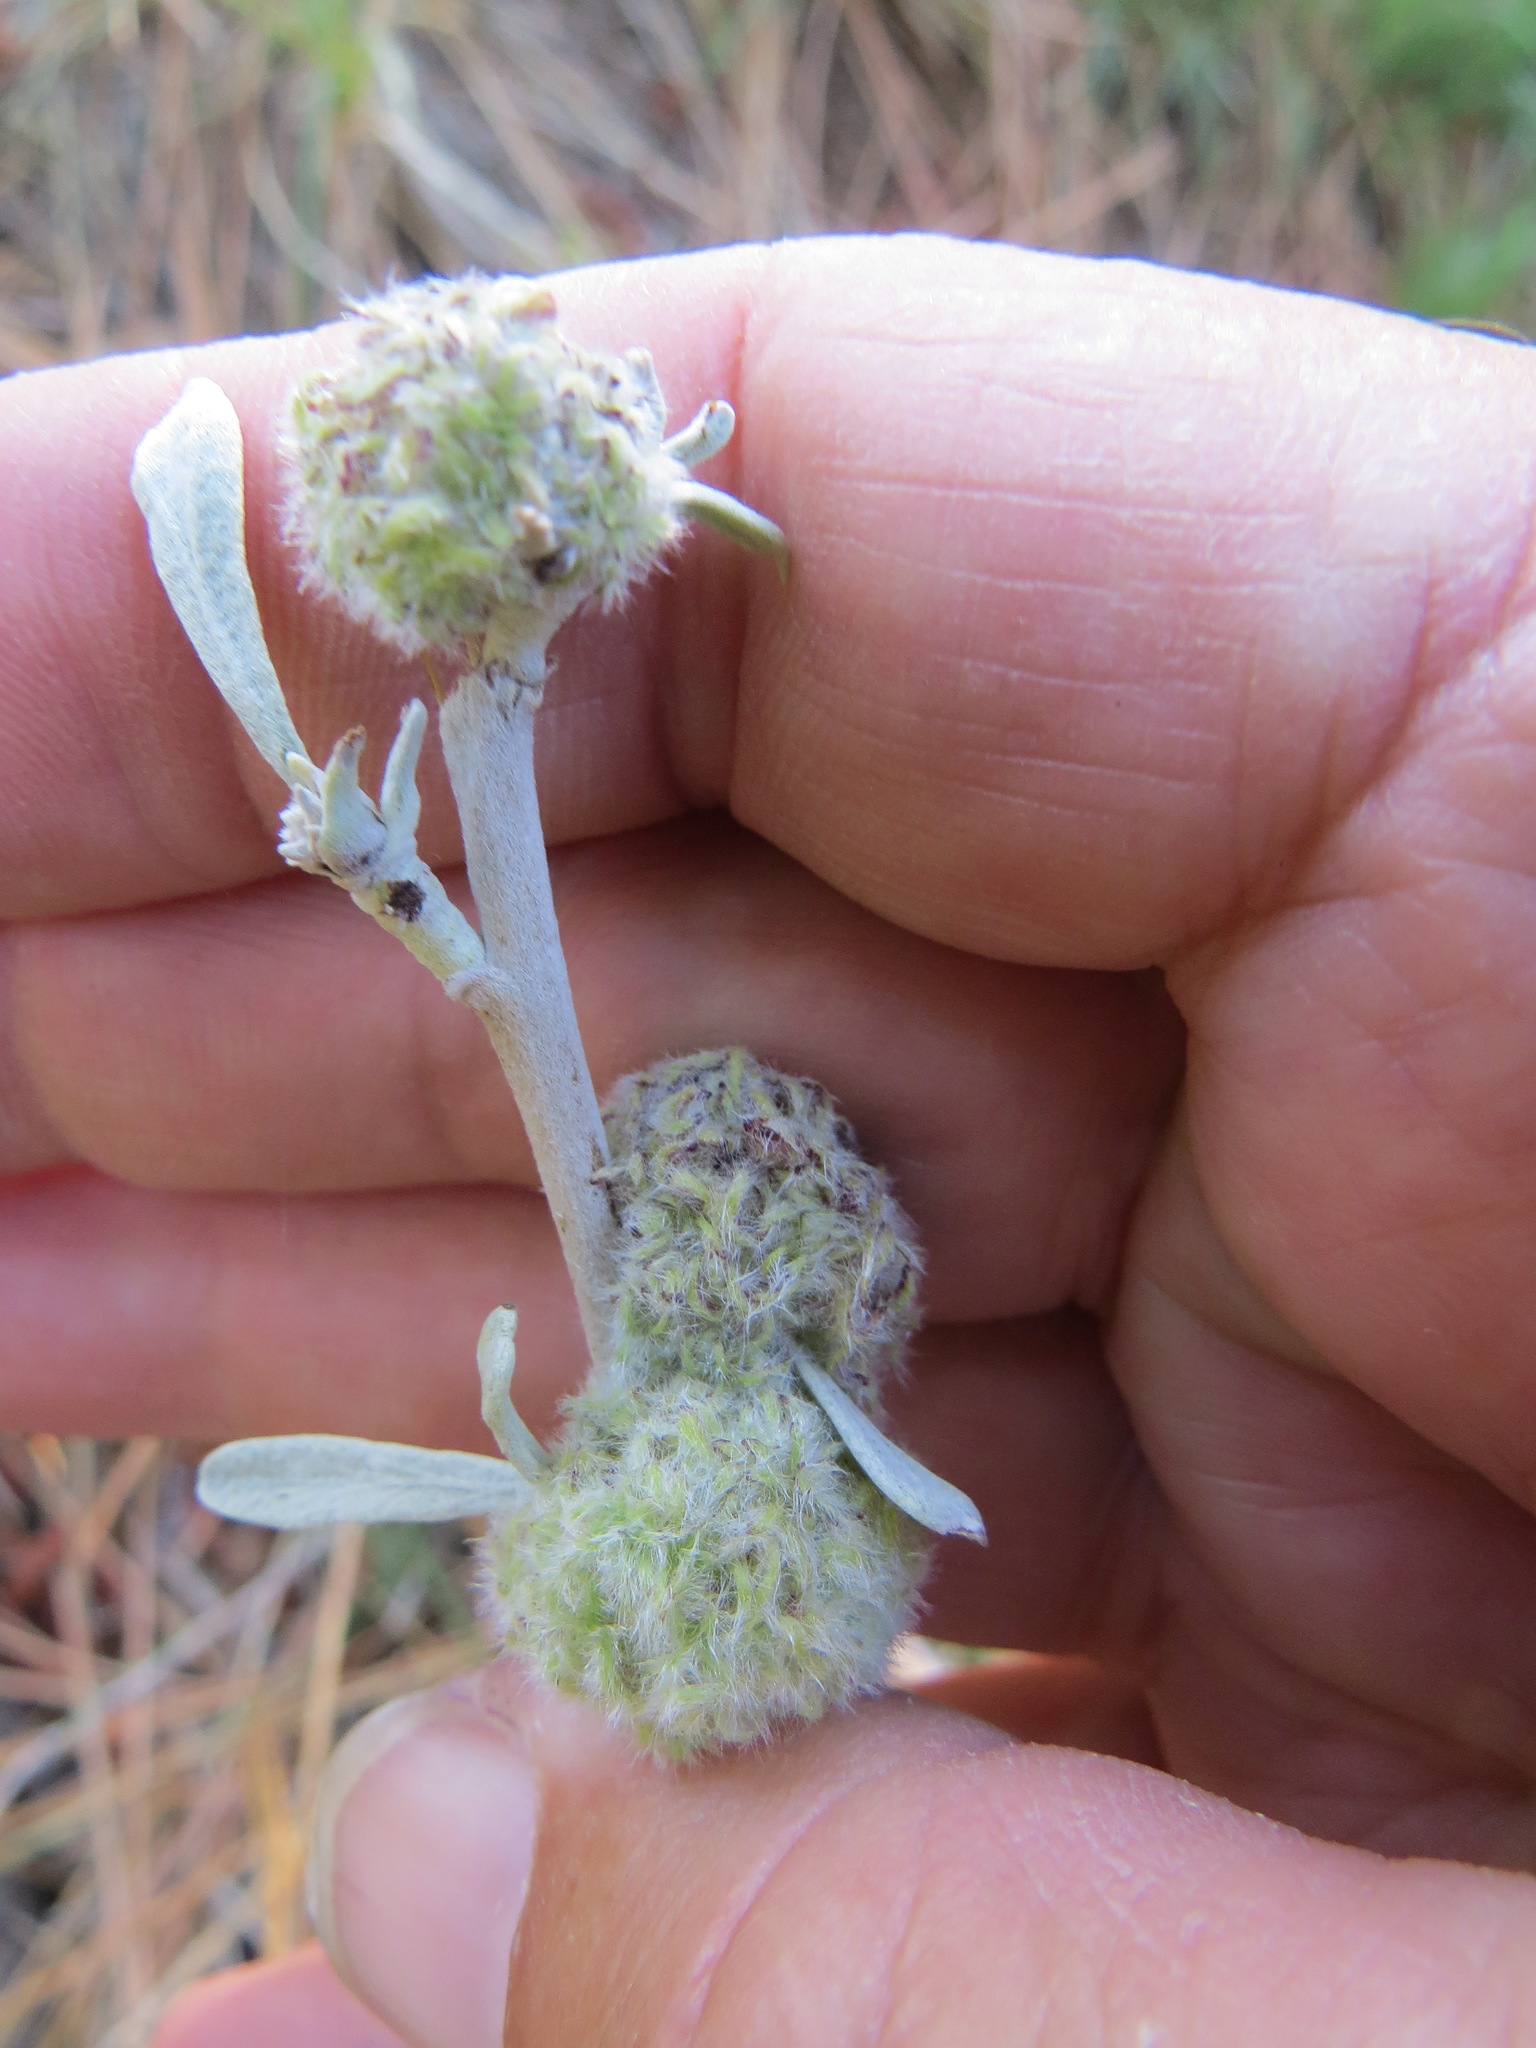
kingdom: Animalia
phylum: Arthropoda
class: Insecta
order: Diptera
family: Cecidomyiidae
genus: Rhopalomyia
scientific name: Rhopalomyia medusirrasa
